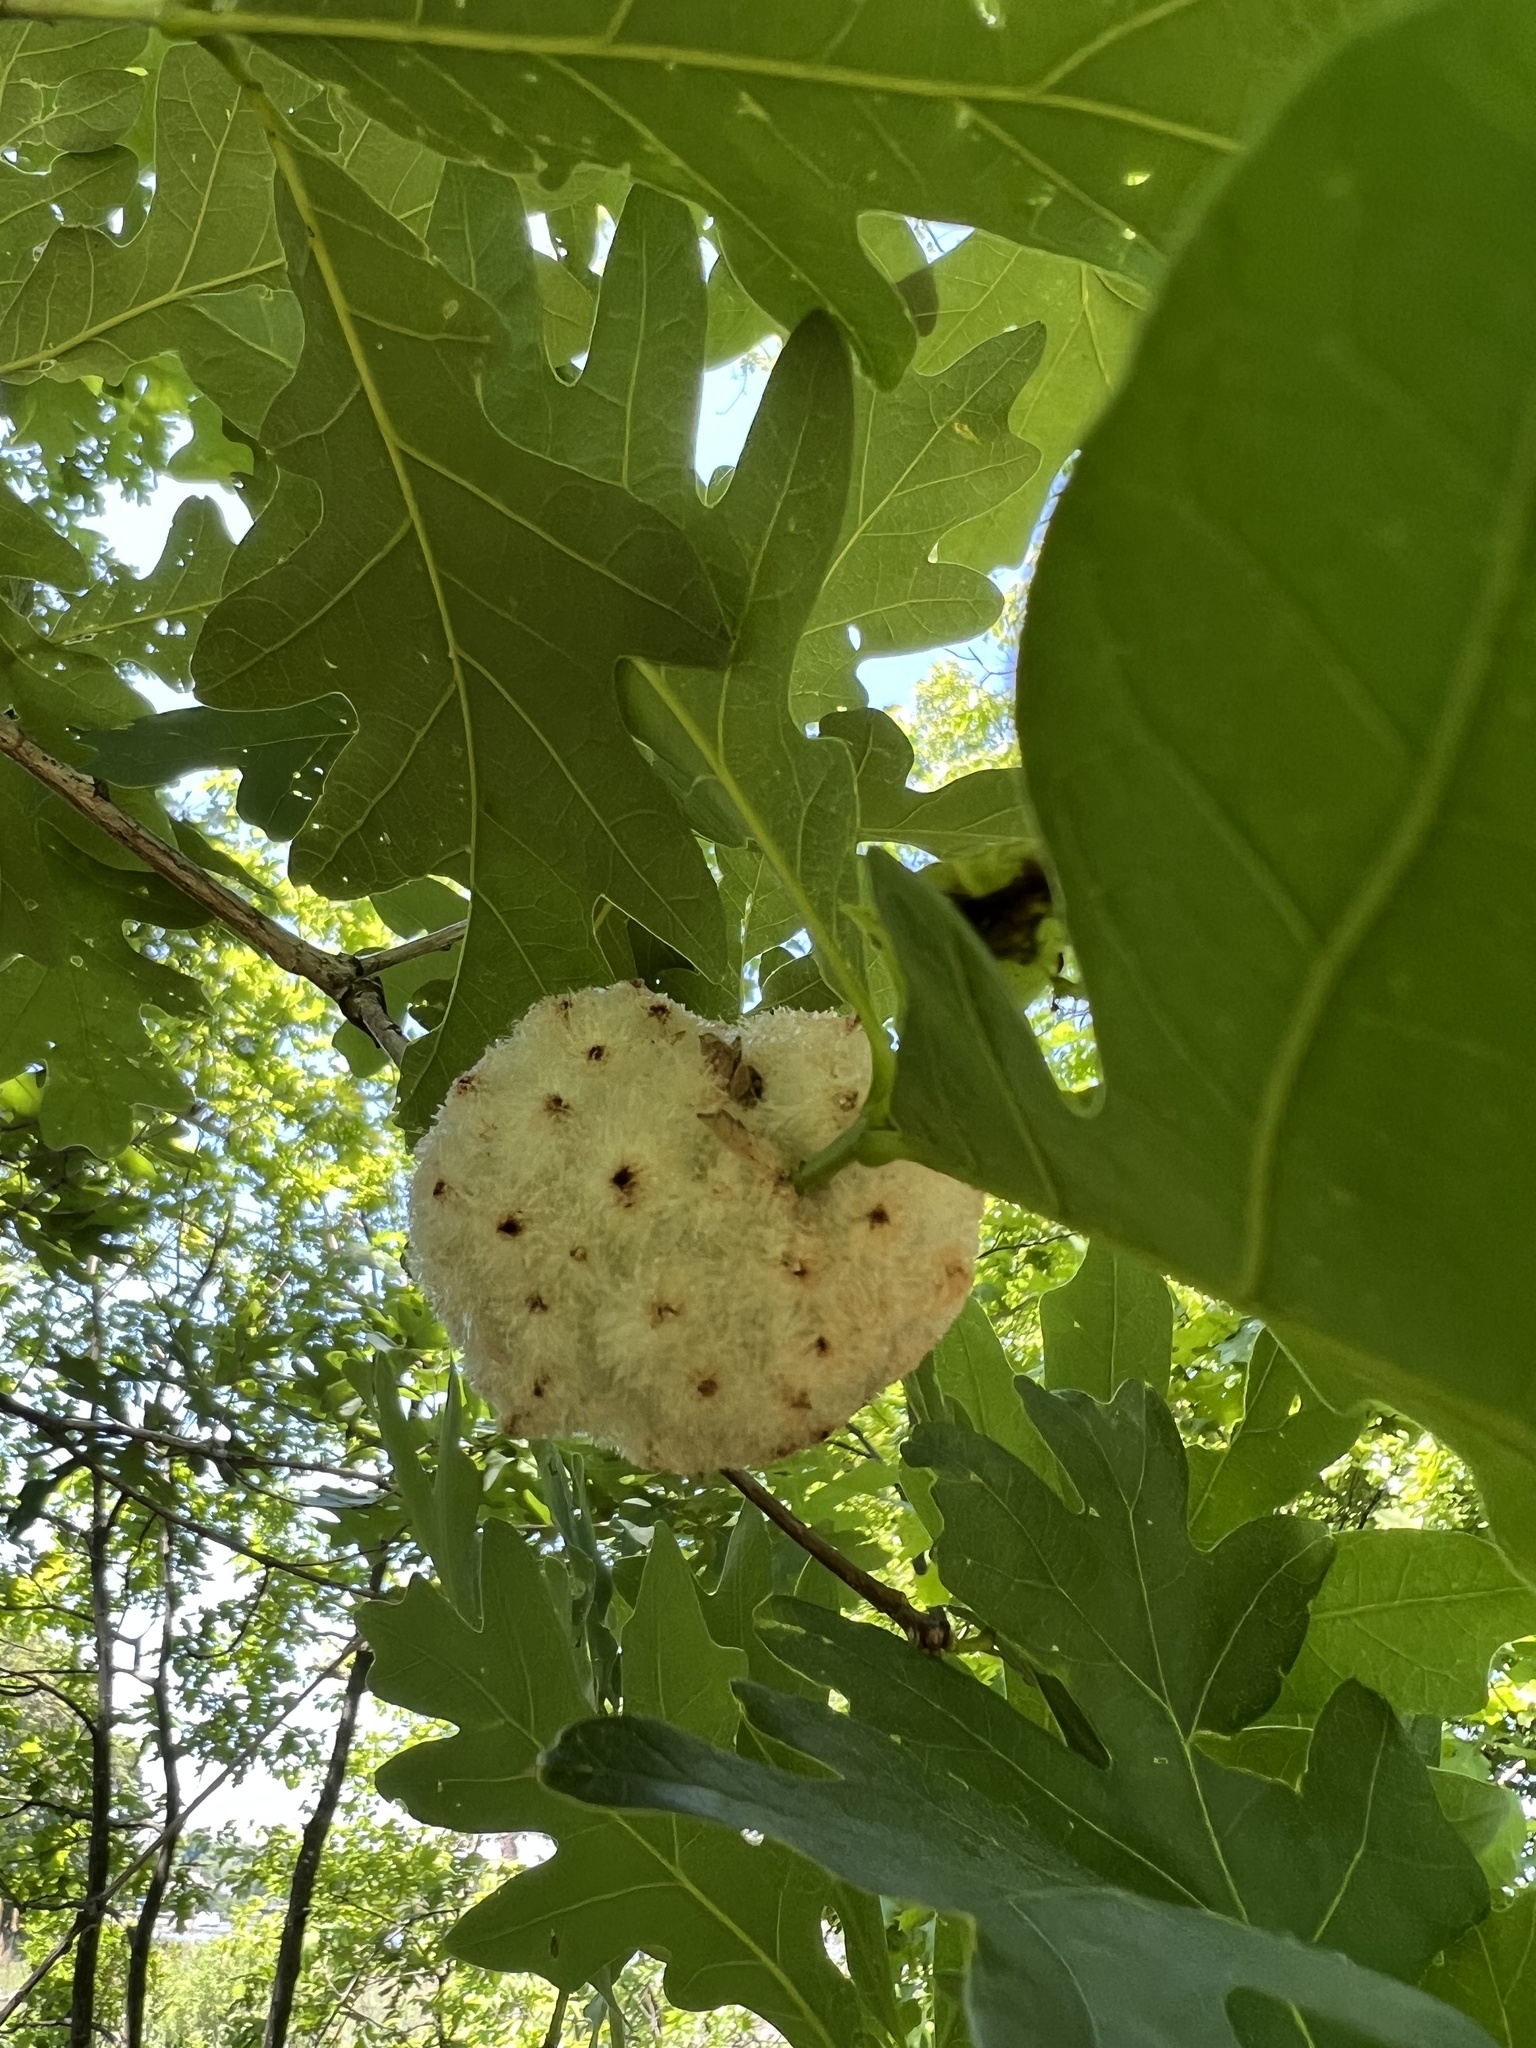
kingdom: Animalia
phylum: Arthropoda
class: Insecta
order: Hymenoptera
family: Cynipidae
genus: Callirhytis
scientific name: Callirhytis
